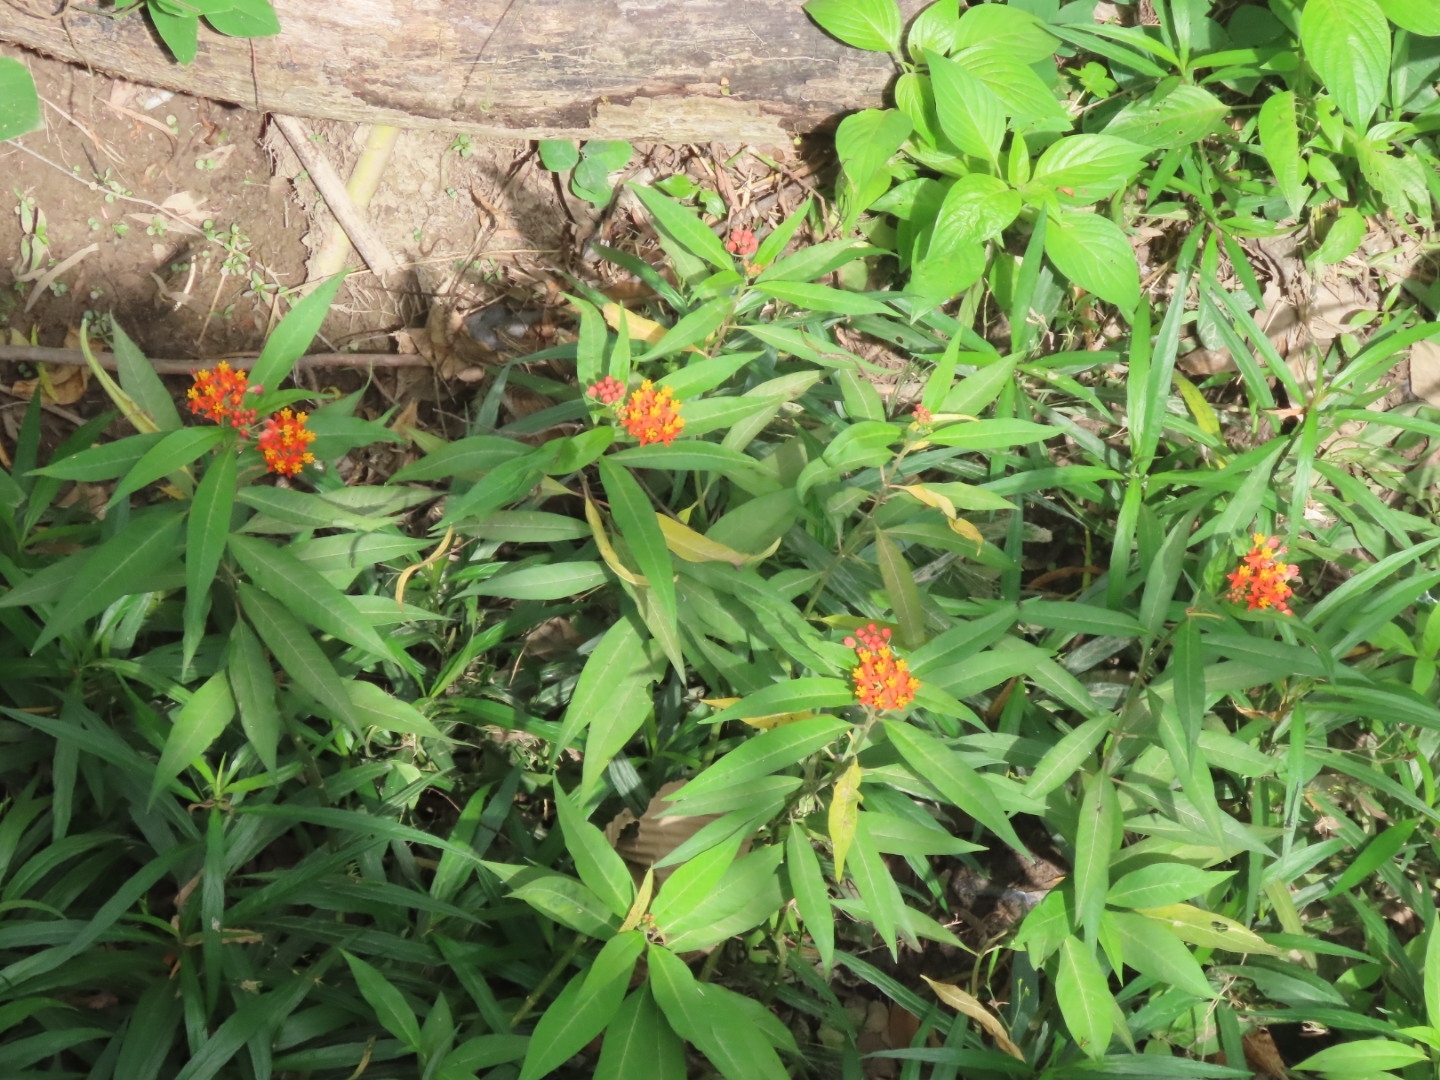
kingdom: Plantae
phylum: Tracheophyta
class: Magnoliopsida
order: Gentianales
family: Apocynaceae
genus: Asclepias
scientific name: Asclepias curassavica
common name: Bloodflower
